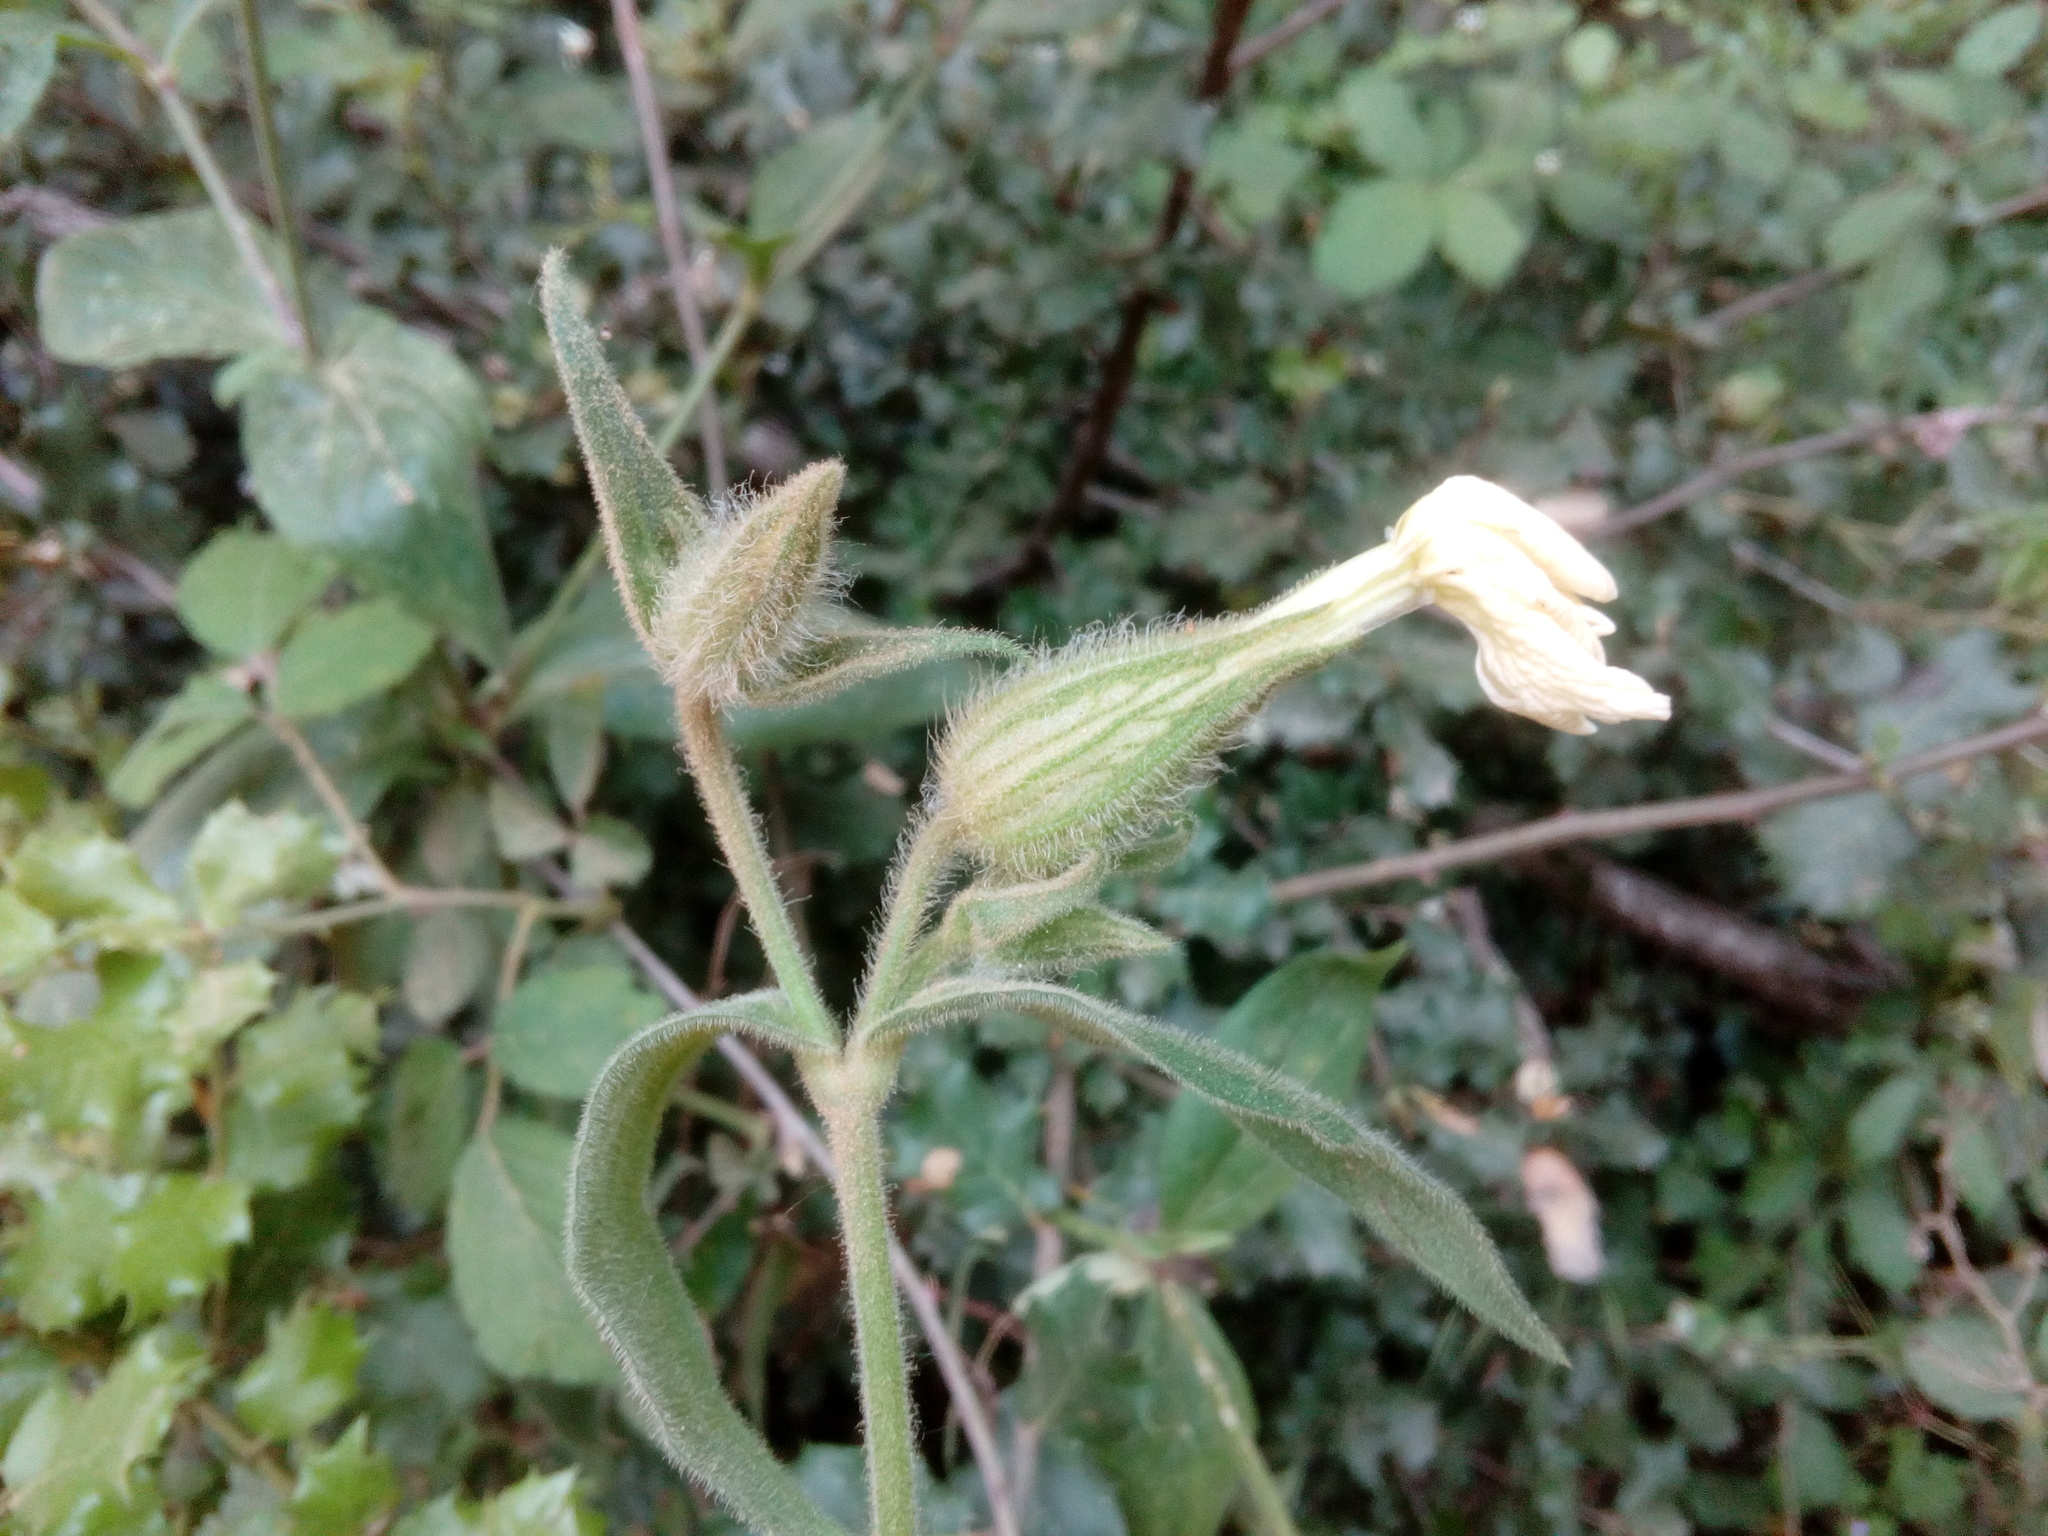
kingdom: Plantae
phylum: Tracheophyta
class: Magnoliopsida
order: Caryophyllales
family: Caryophyllaceae
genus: Silene
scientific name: Silene latifolia
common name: White campion
